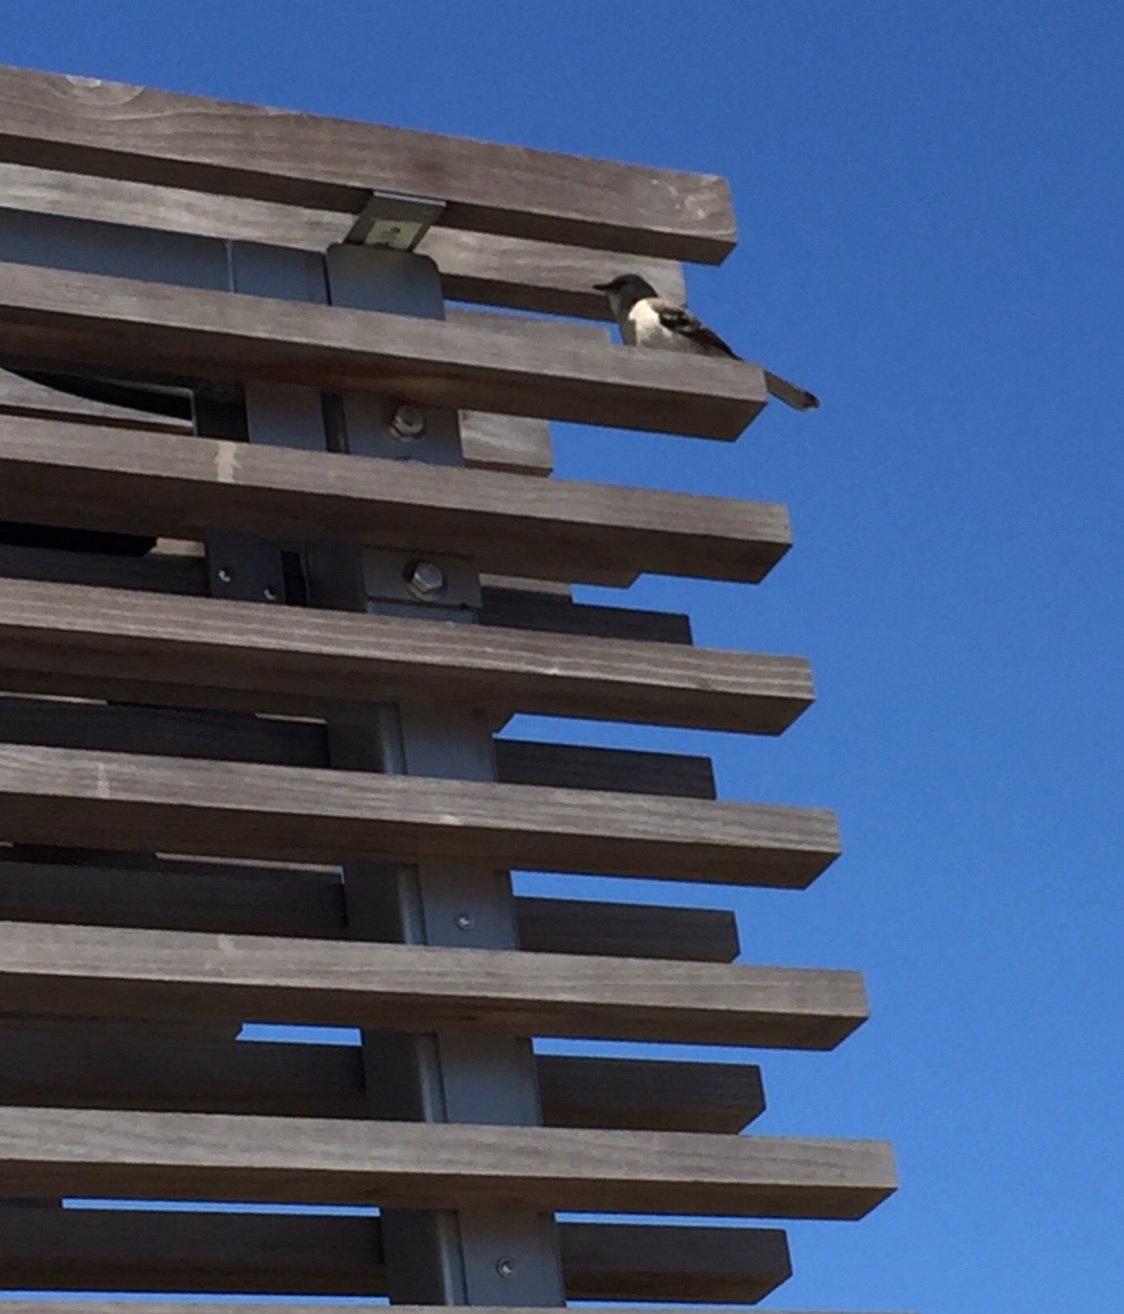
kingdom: Animalia
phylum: Chordata
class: Aves
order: Passeriformes
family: Mimidae
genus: Mimus
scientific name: Mimus polyglottos
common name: Northern mockingbird
